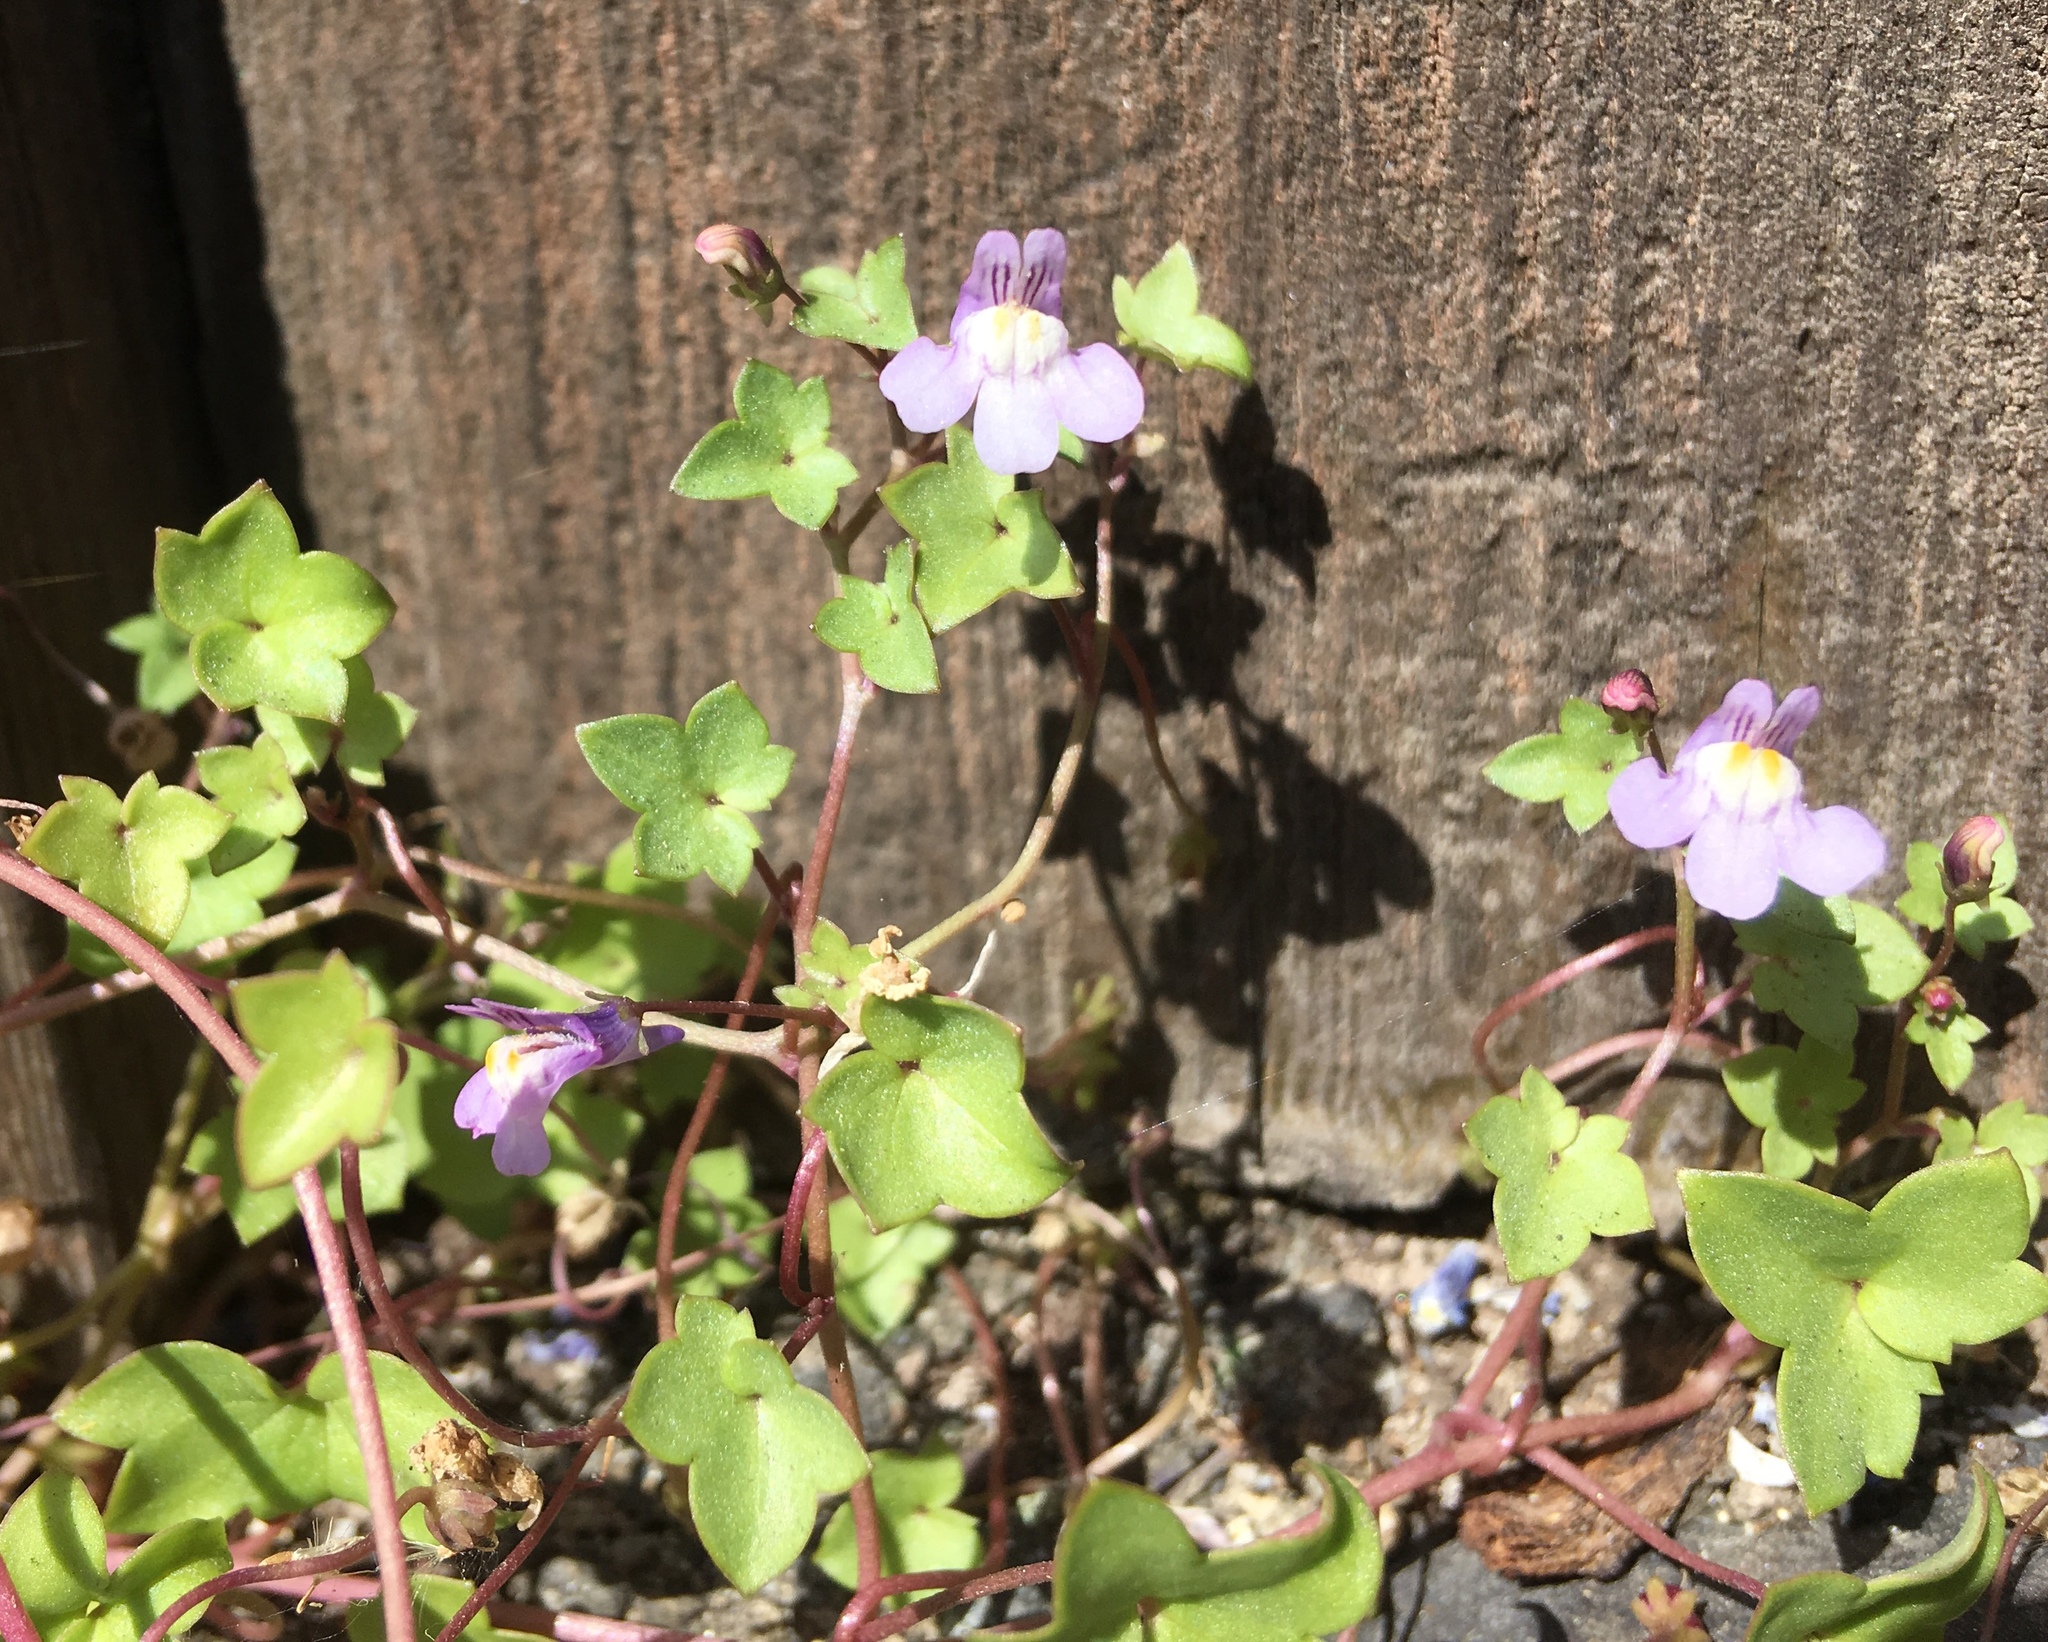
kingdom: Plantae
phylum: Tracheophyta
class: Magnoliopsida
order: Lamiales
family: Plantaginaceae
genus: Cymbalaria
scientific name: Cymbalaria muralis
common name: Ivy-leaved toadflax
